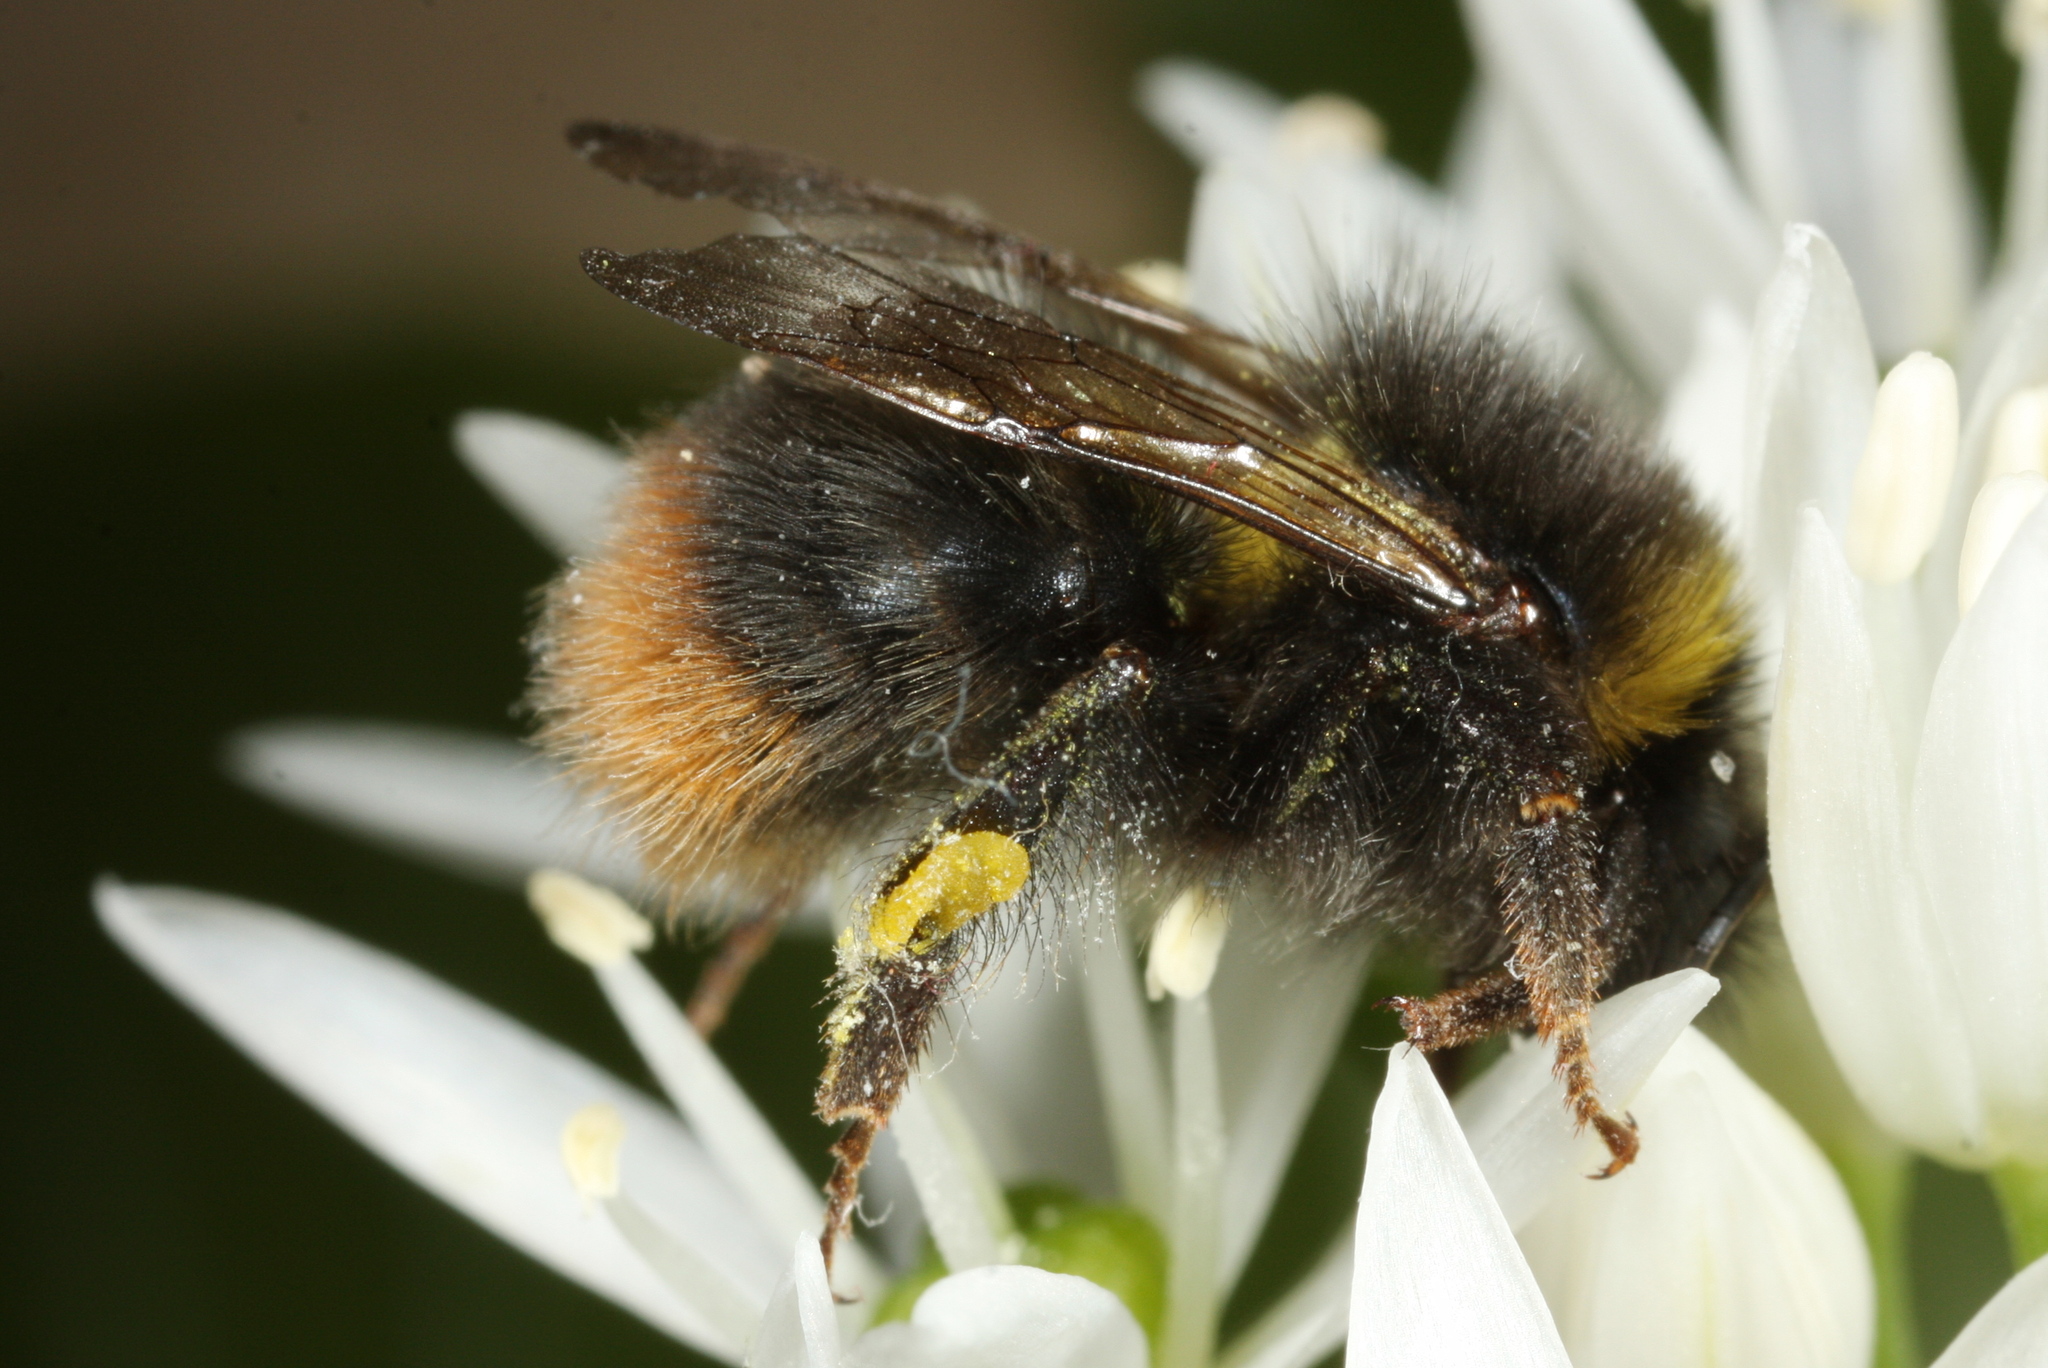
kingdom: Animalia
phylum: Arthropoda
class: Insecta
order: Hymenoptera
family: Apidae
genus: Bombus
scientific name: Bombus pratorum
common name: Early humble-bee
